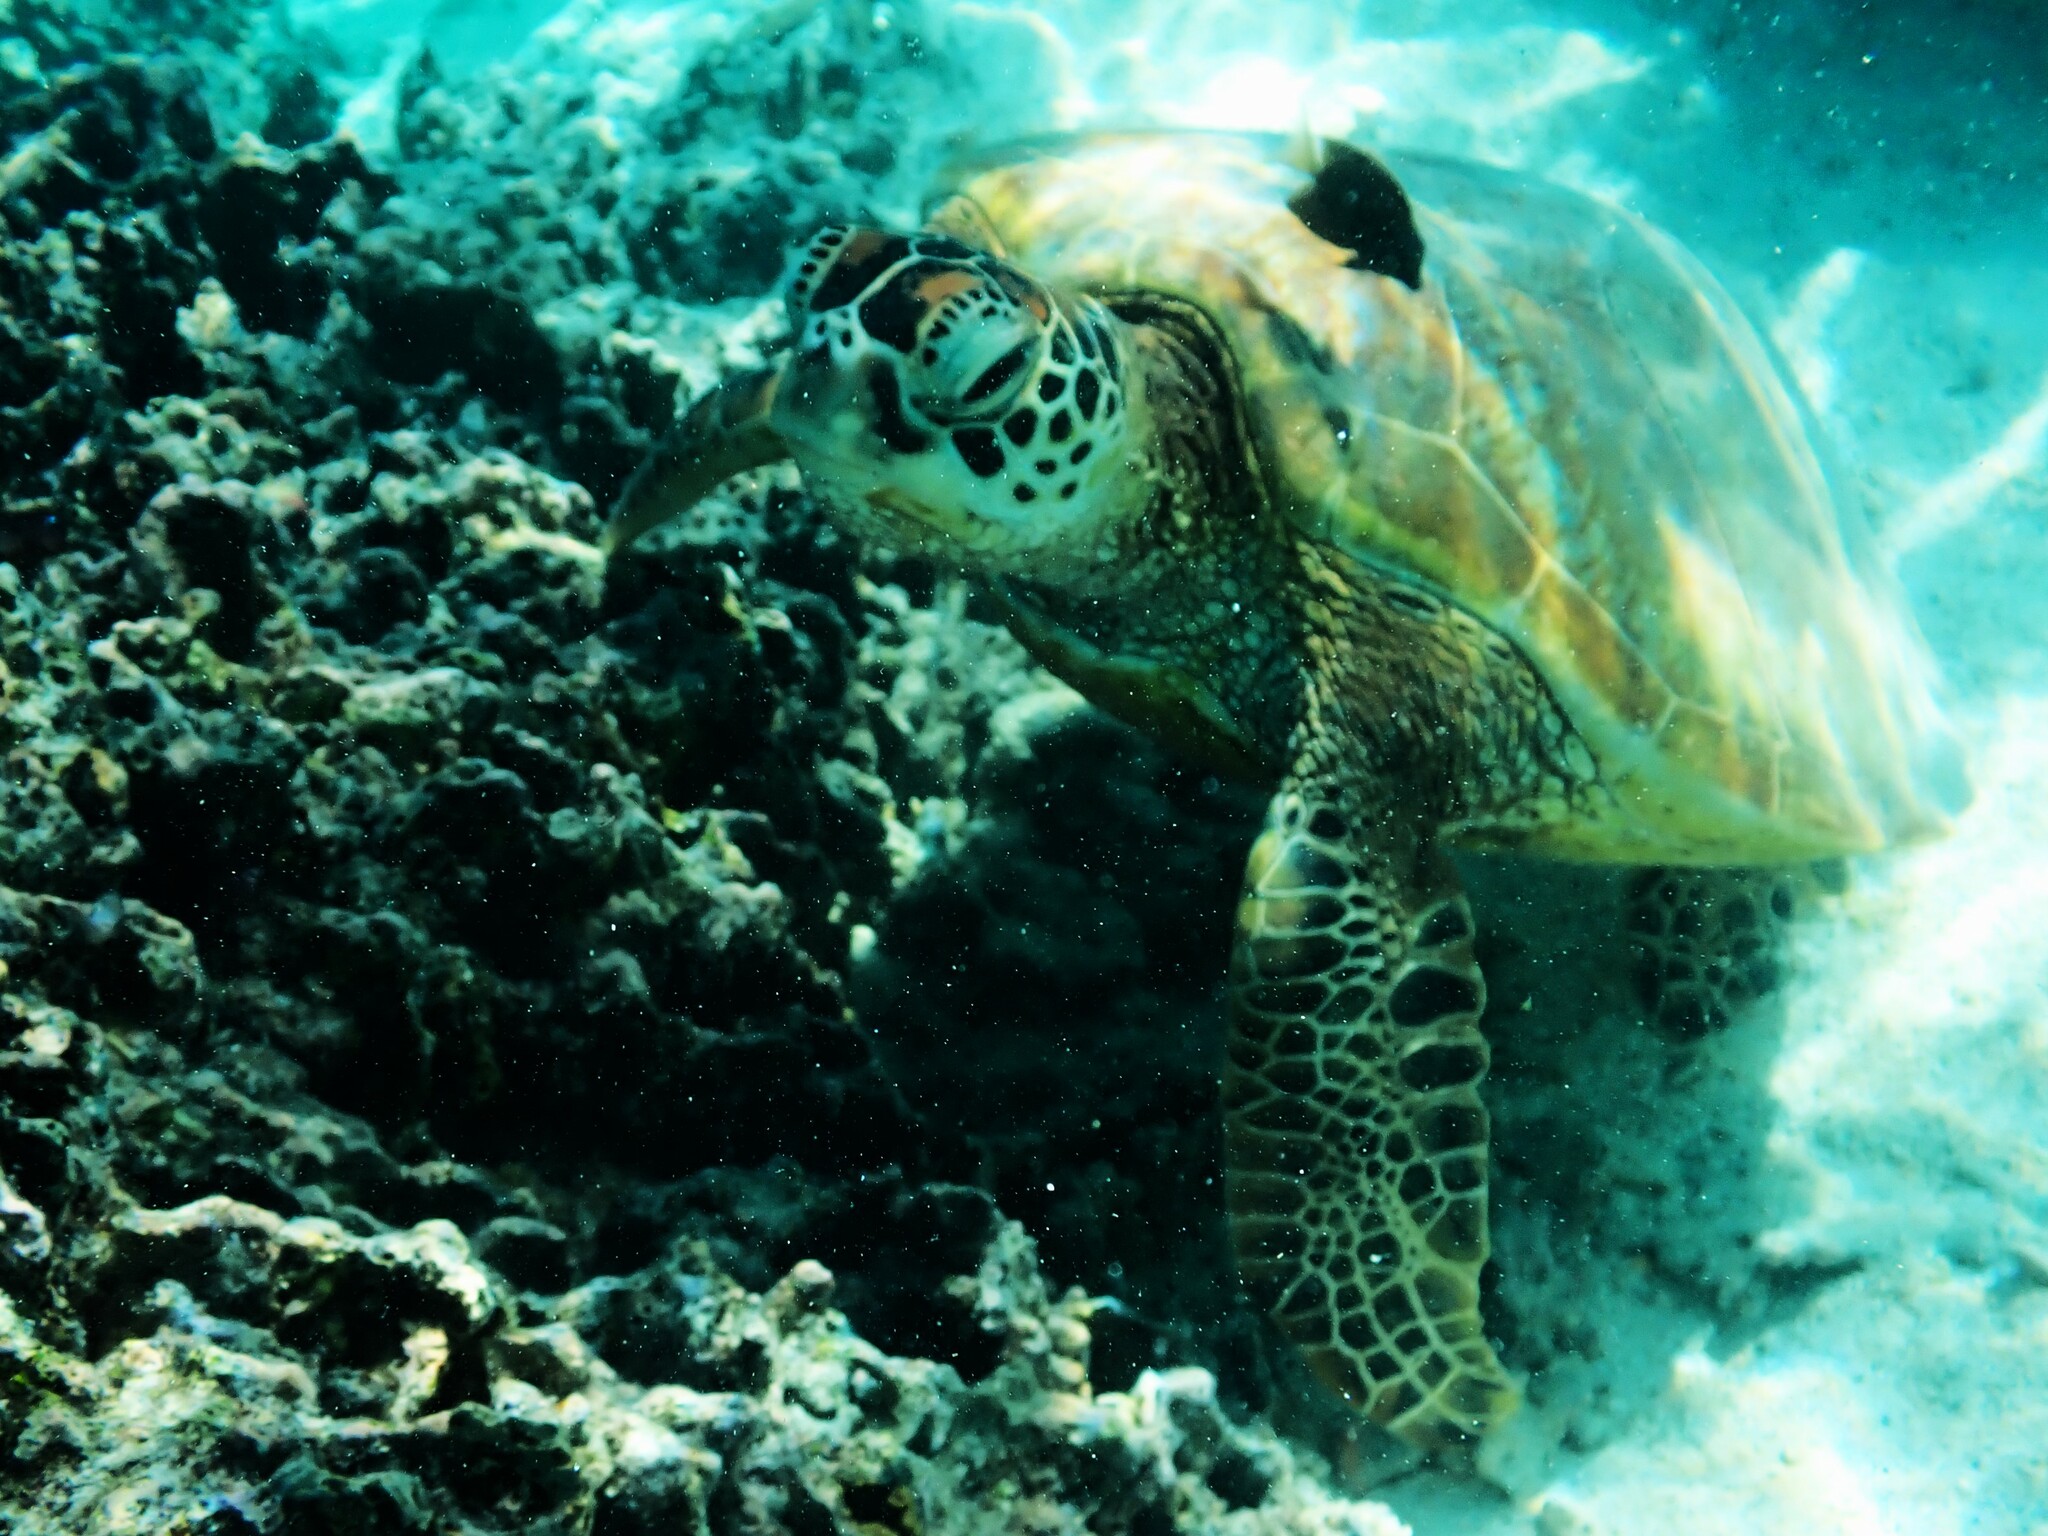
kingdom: Animalia
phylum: Chordata
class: Testudines
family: Cheloniidae
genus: Chelonia
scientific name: Chelonia mydas
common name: Green turtle
